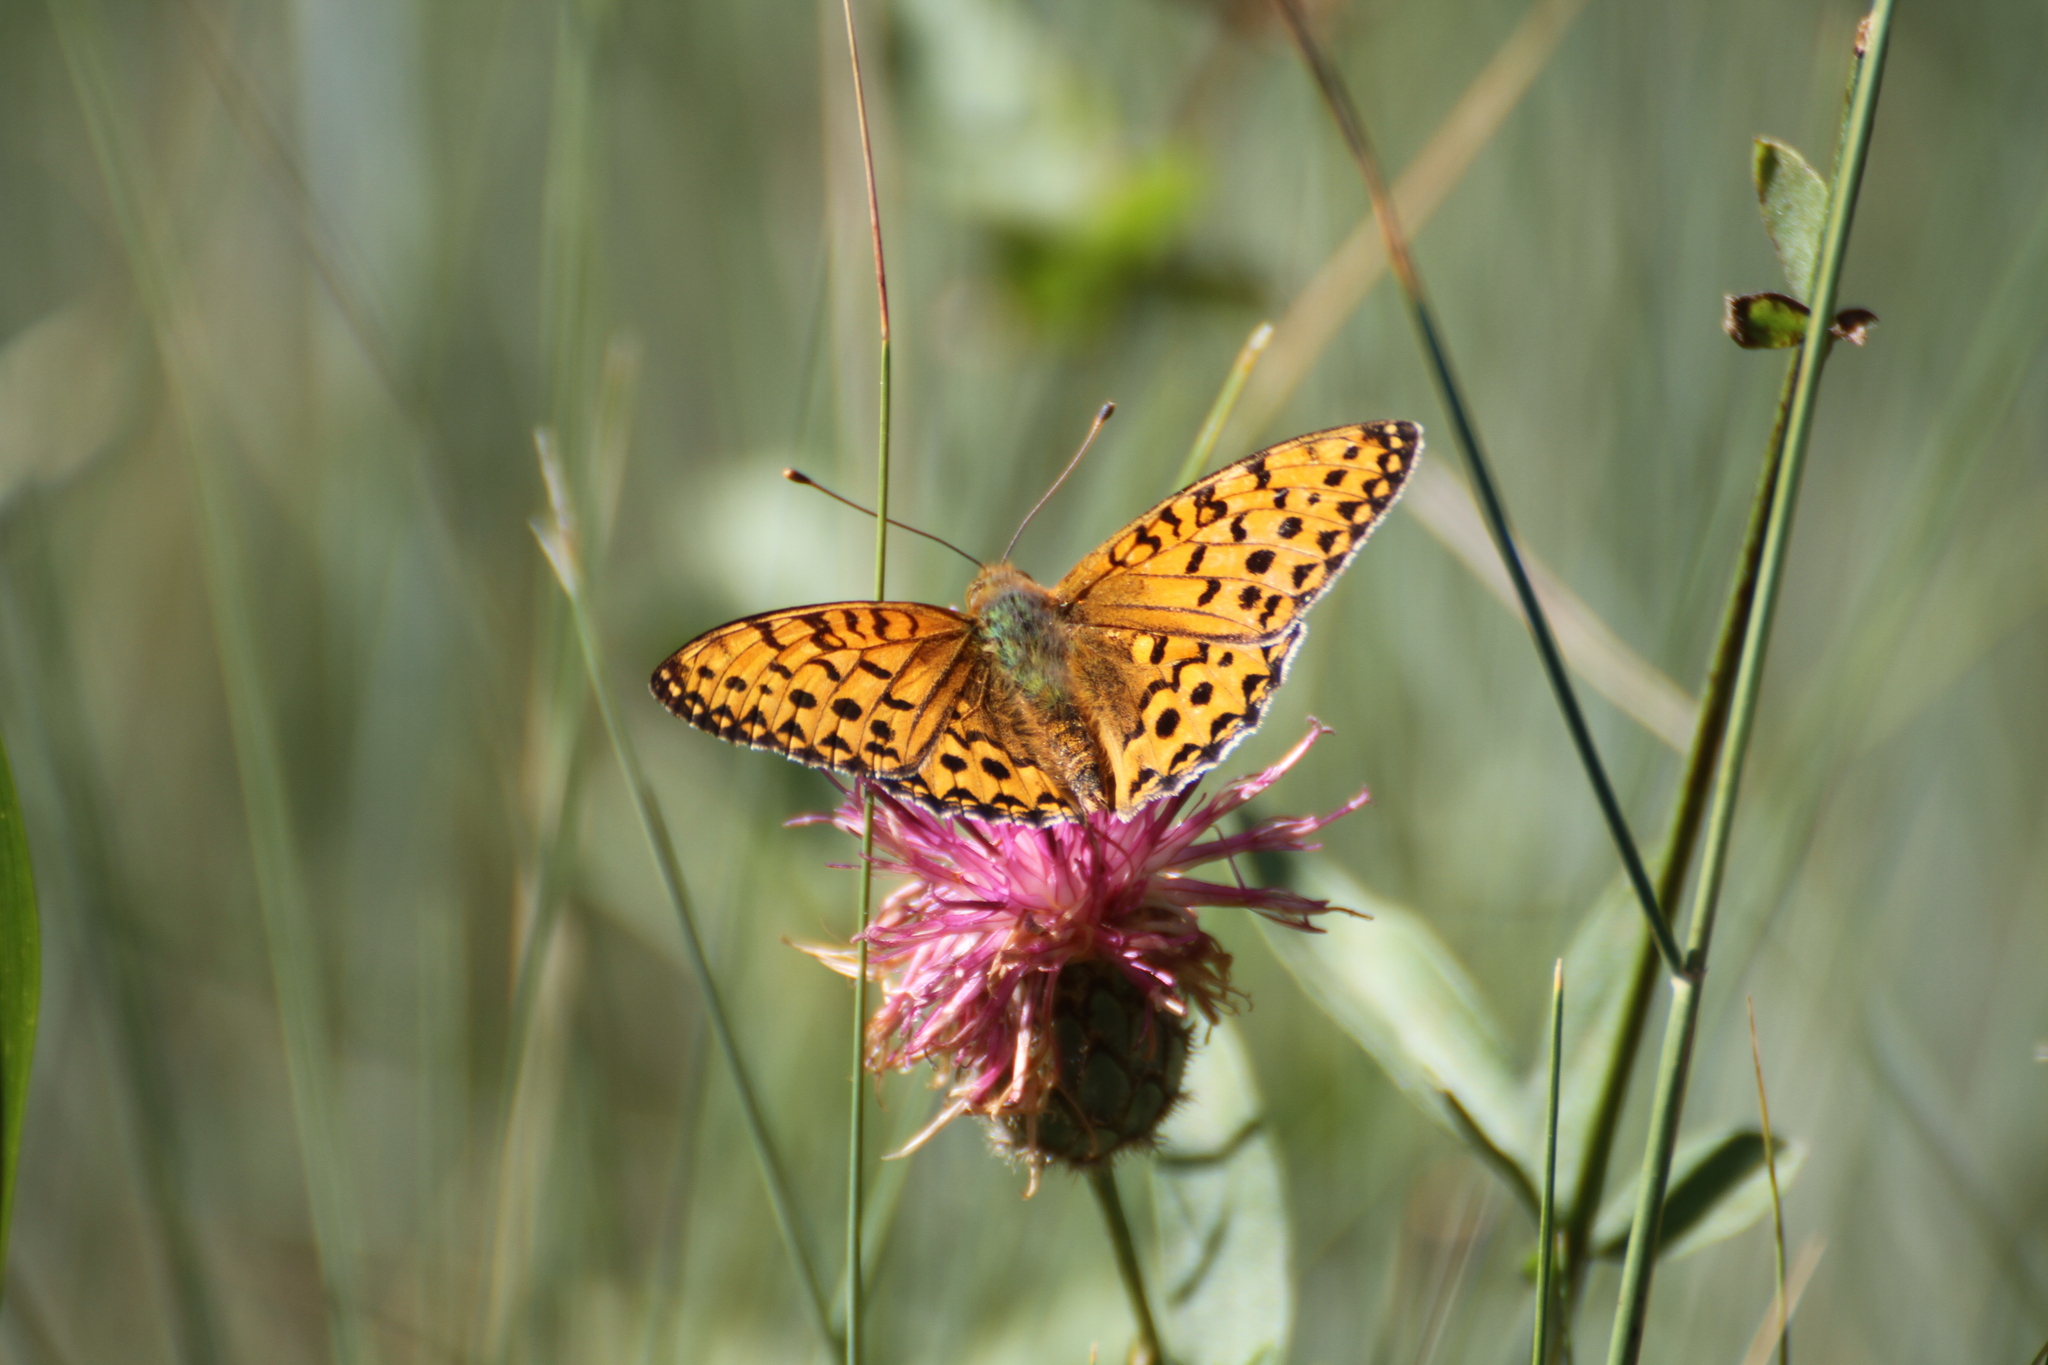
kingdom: Animalia
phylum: Arthropoda
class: Insecta
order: Lepidoptera
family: Nymphalidae
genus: Speyeria
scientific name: Speyeria aglaja
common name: Dark green fritillary
